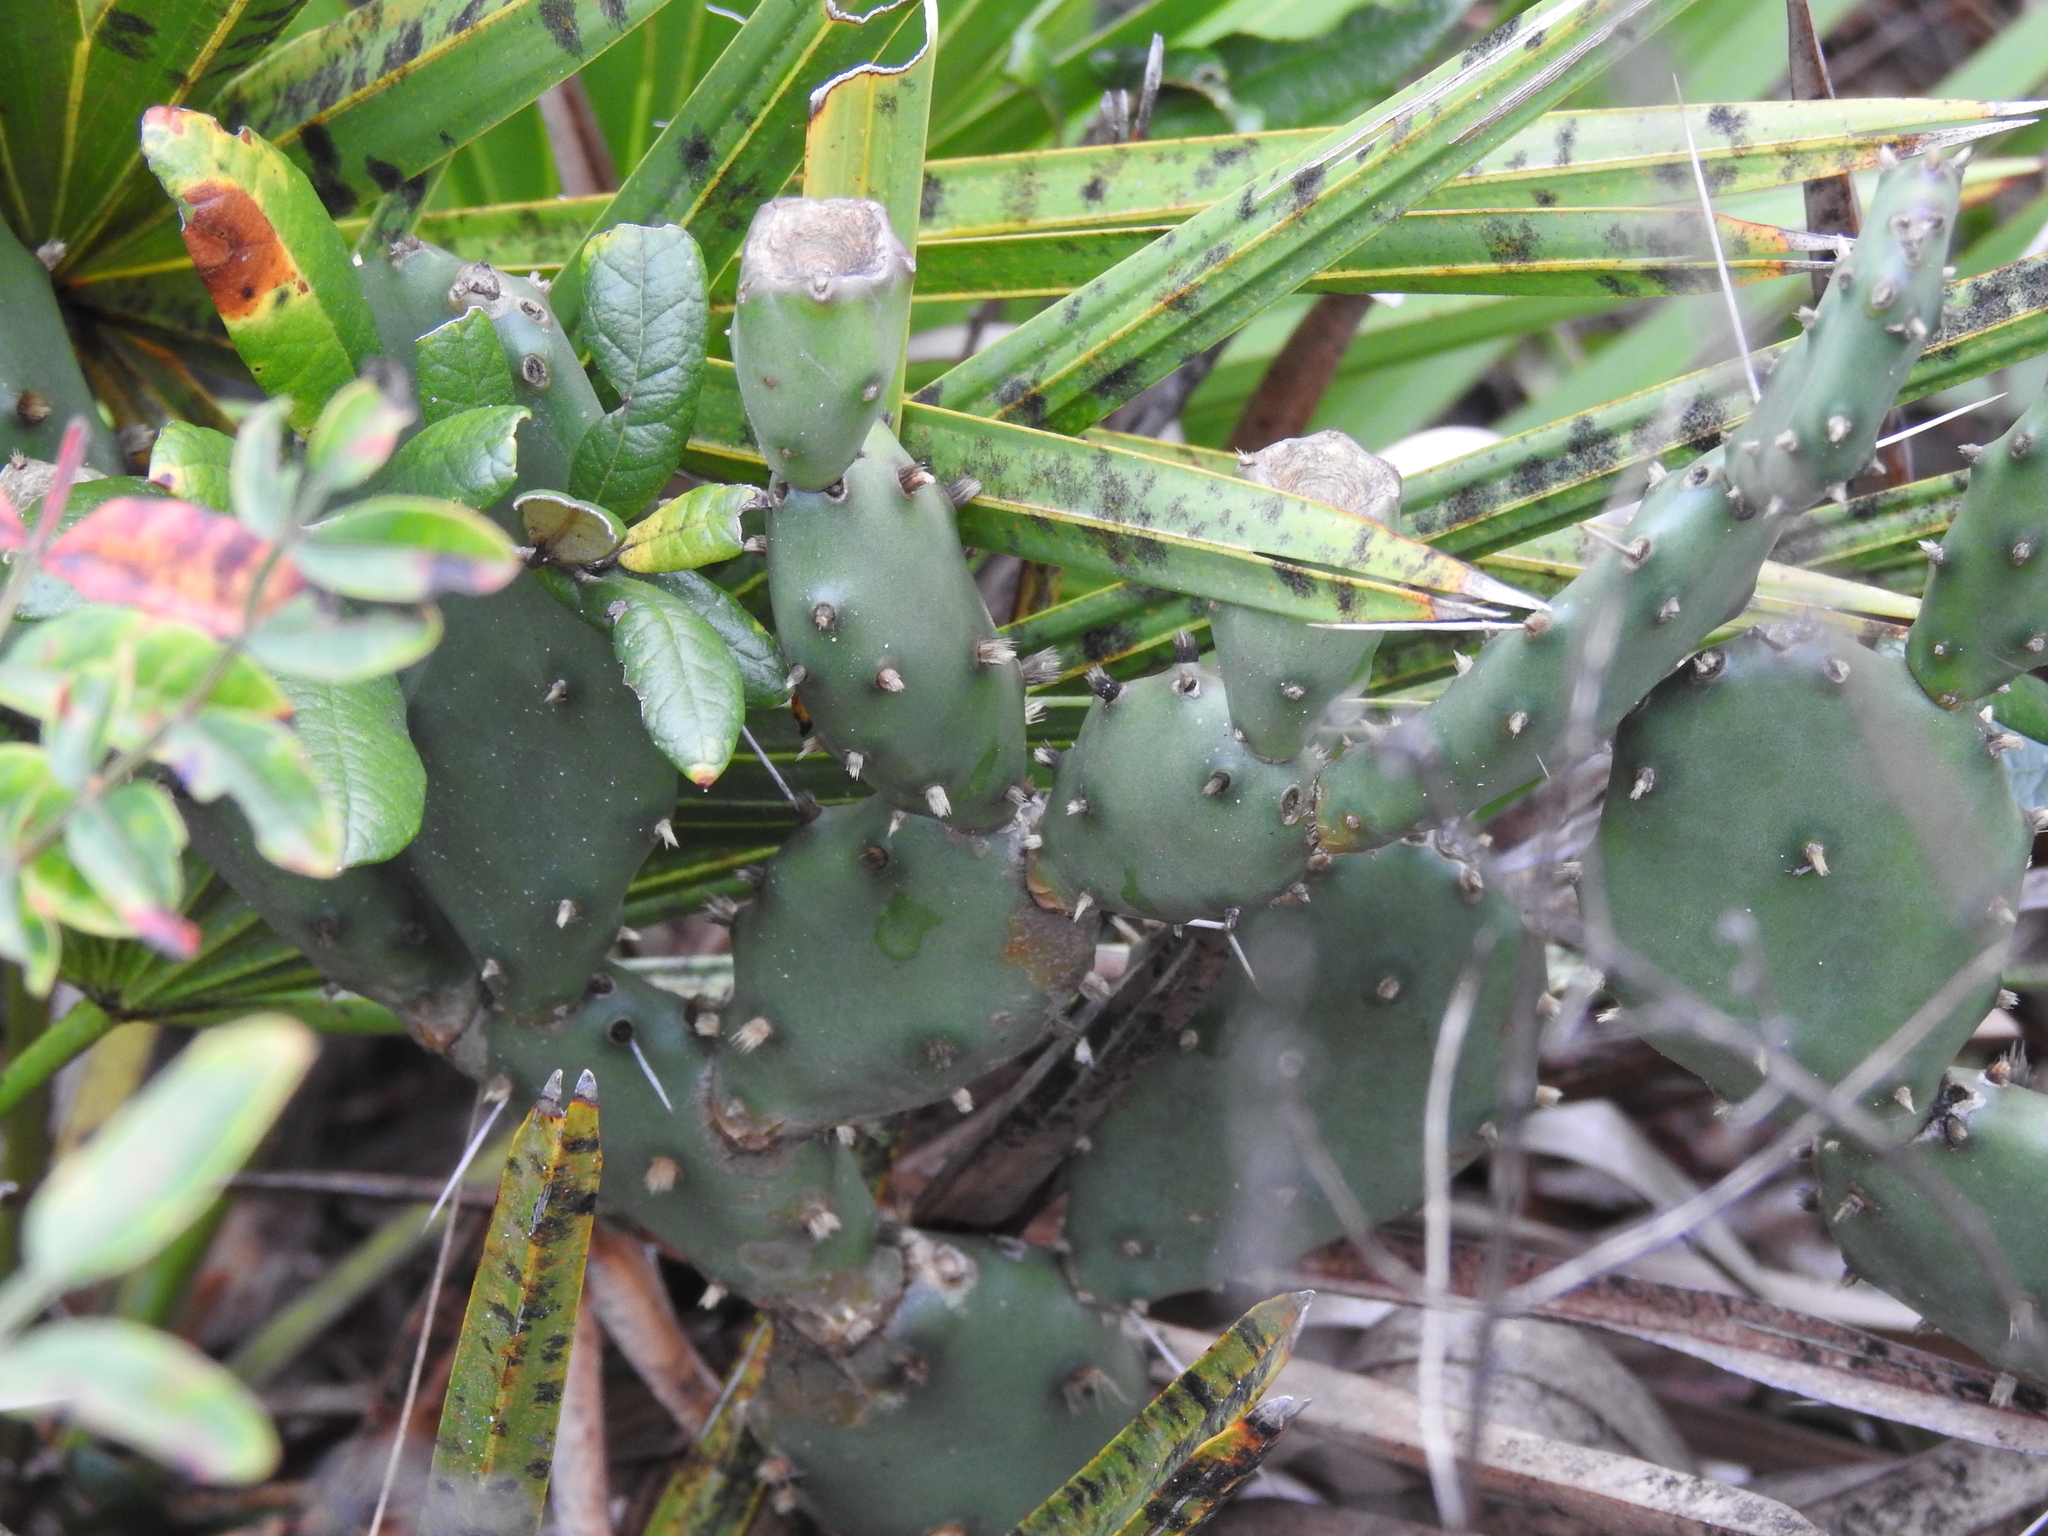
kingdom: Plantae
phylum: Tracheophyta
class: Magnoliopsida
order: Caryophyllales
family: Cactaceae
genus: Opuntia
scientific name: Opuntia austrina
